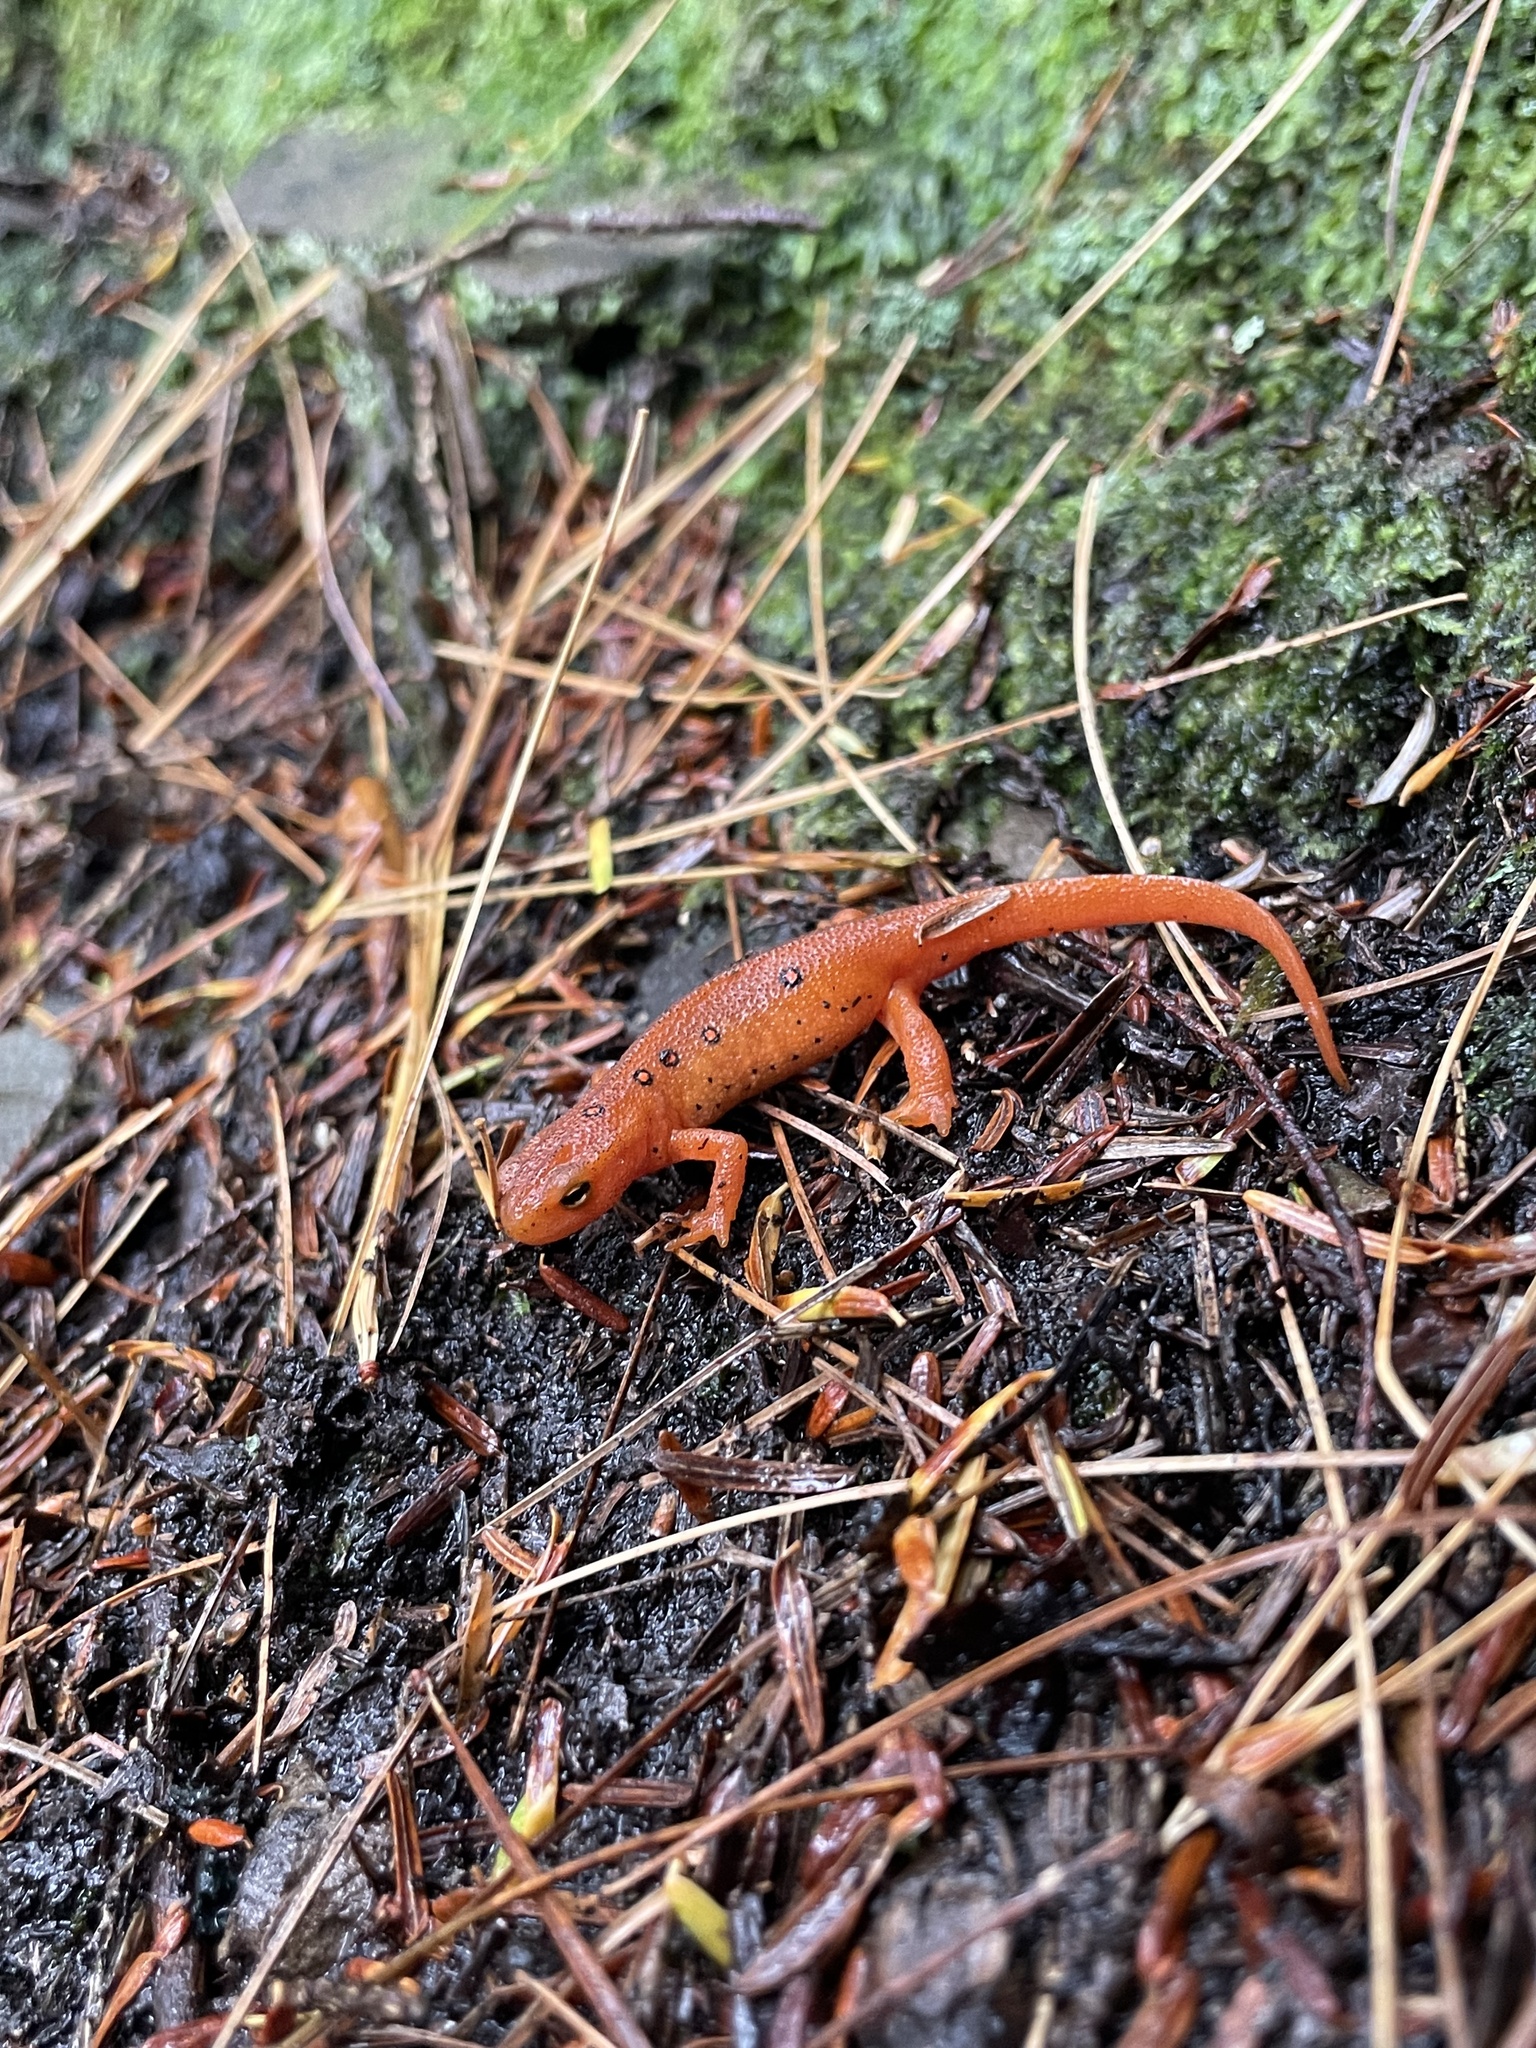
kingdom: Animalia
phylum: Chordata
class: Amphibia
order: Caudata
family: Salamandridae
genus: Notophthalmus
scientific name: Notophthalmus viridescens
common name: Eastern newt
